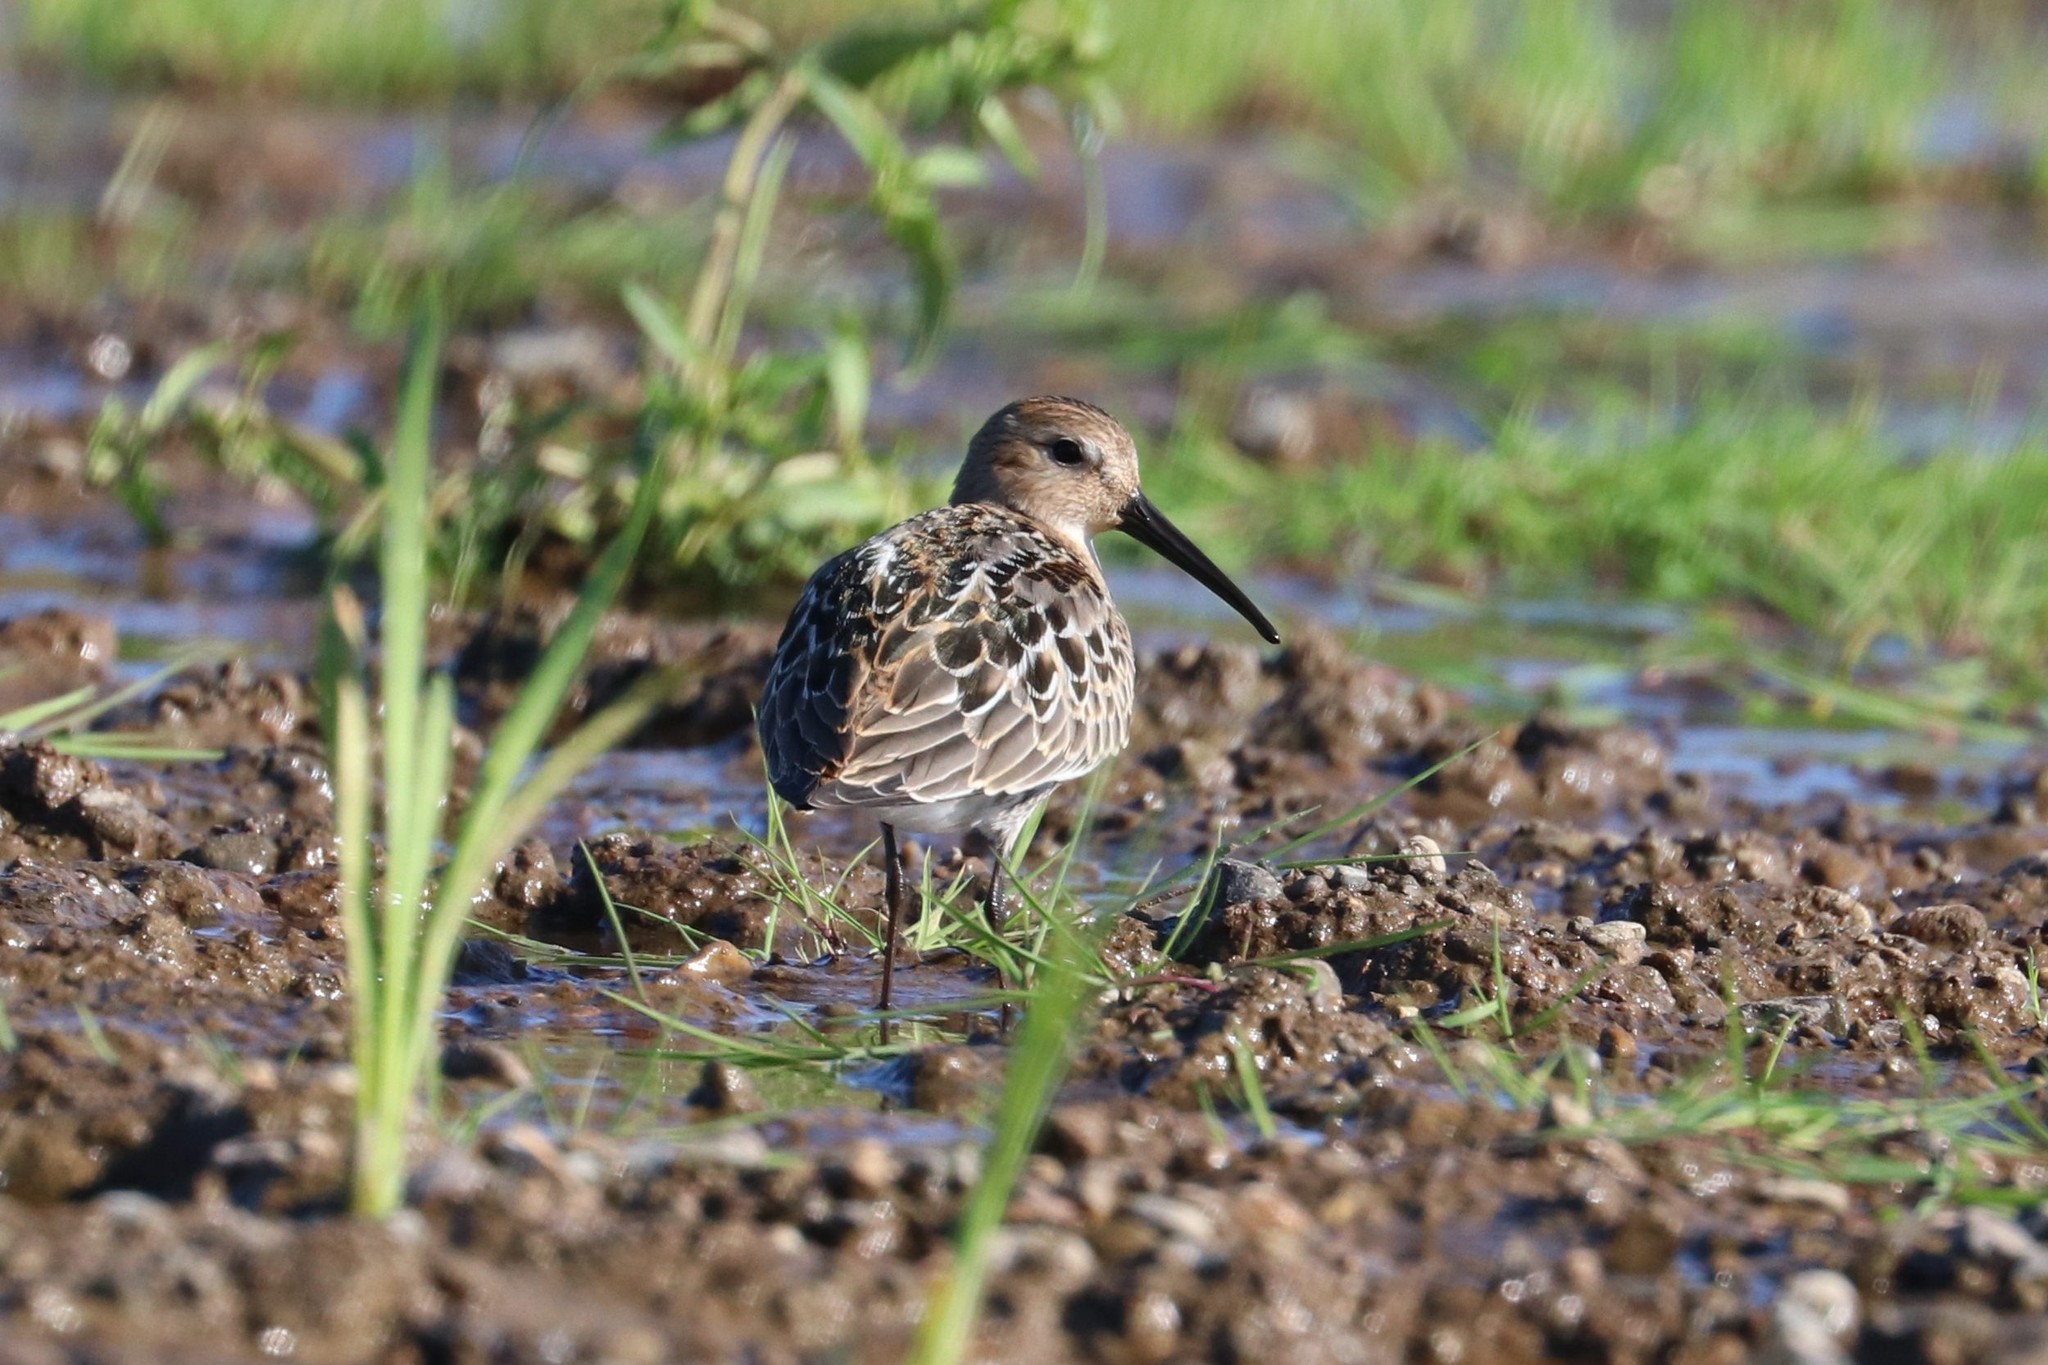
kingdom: Animalia
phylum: Chordata
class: Aves
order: Charadriiformes
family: Scolopacidae
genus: Calidris
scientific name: Calidris alpina
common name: Dunlin
